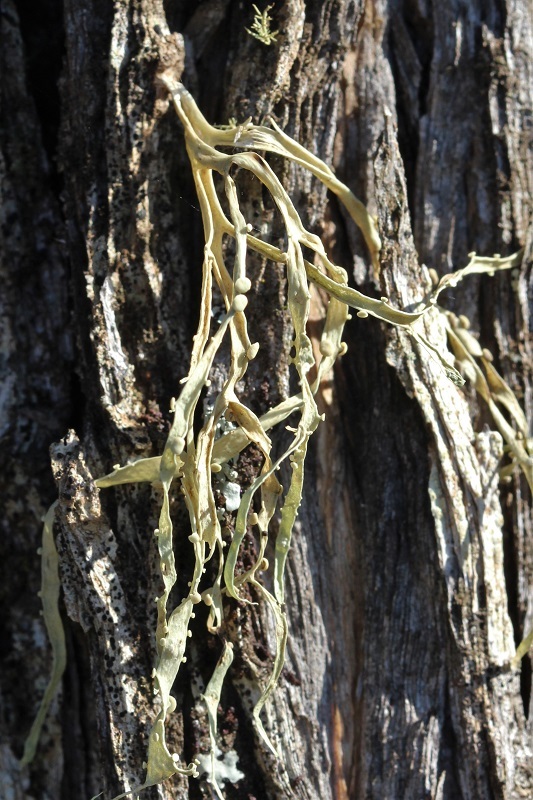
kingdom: Fungi
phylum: Ascomycota
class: Lecanoromycetes
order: Lecanorales
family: Ramalinaceae
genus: Ramalina
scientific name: Ramalina celastri
